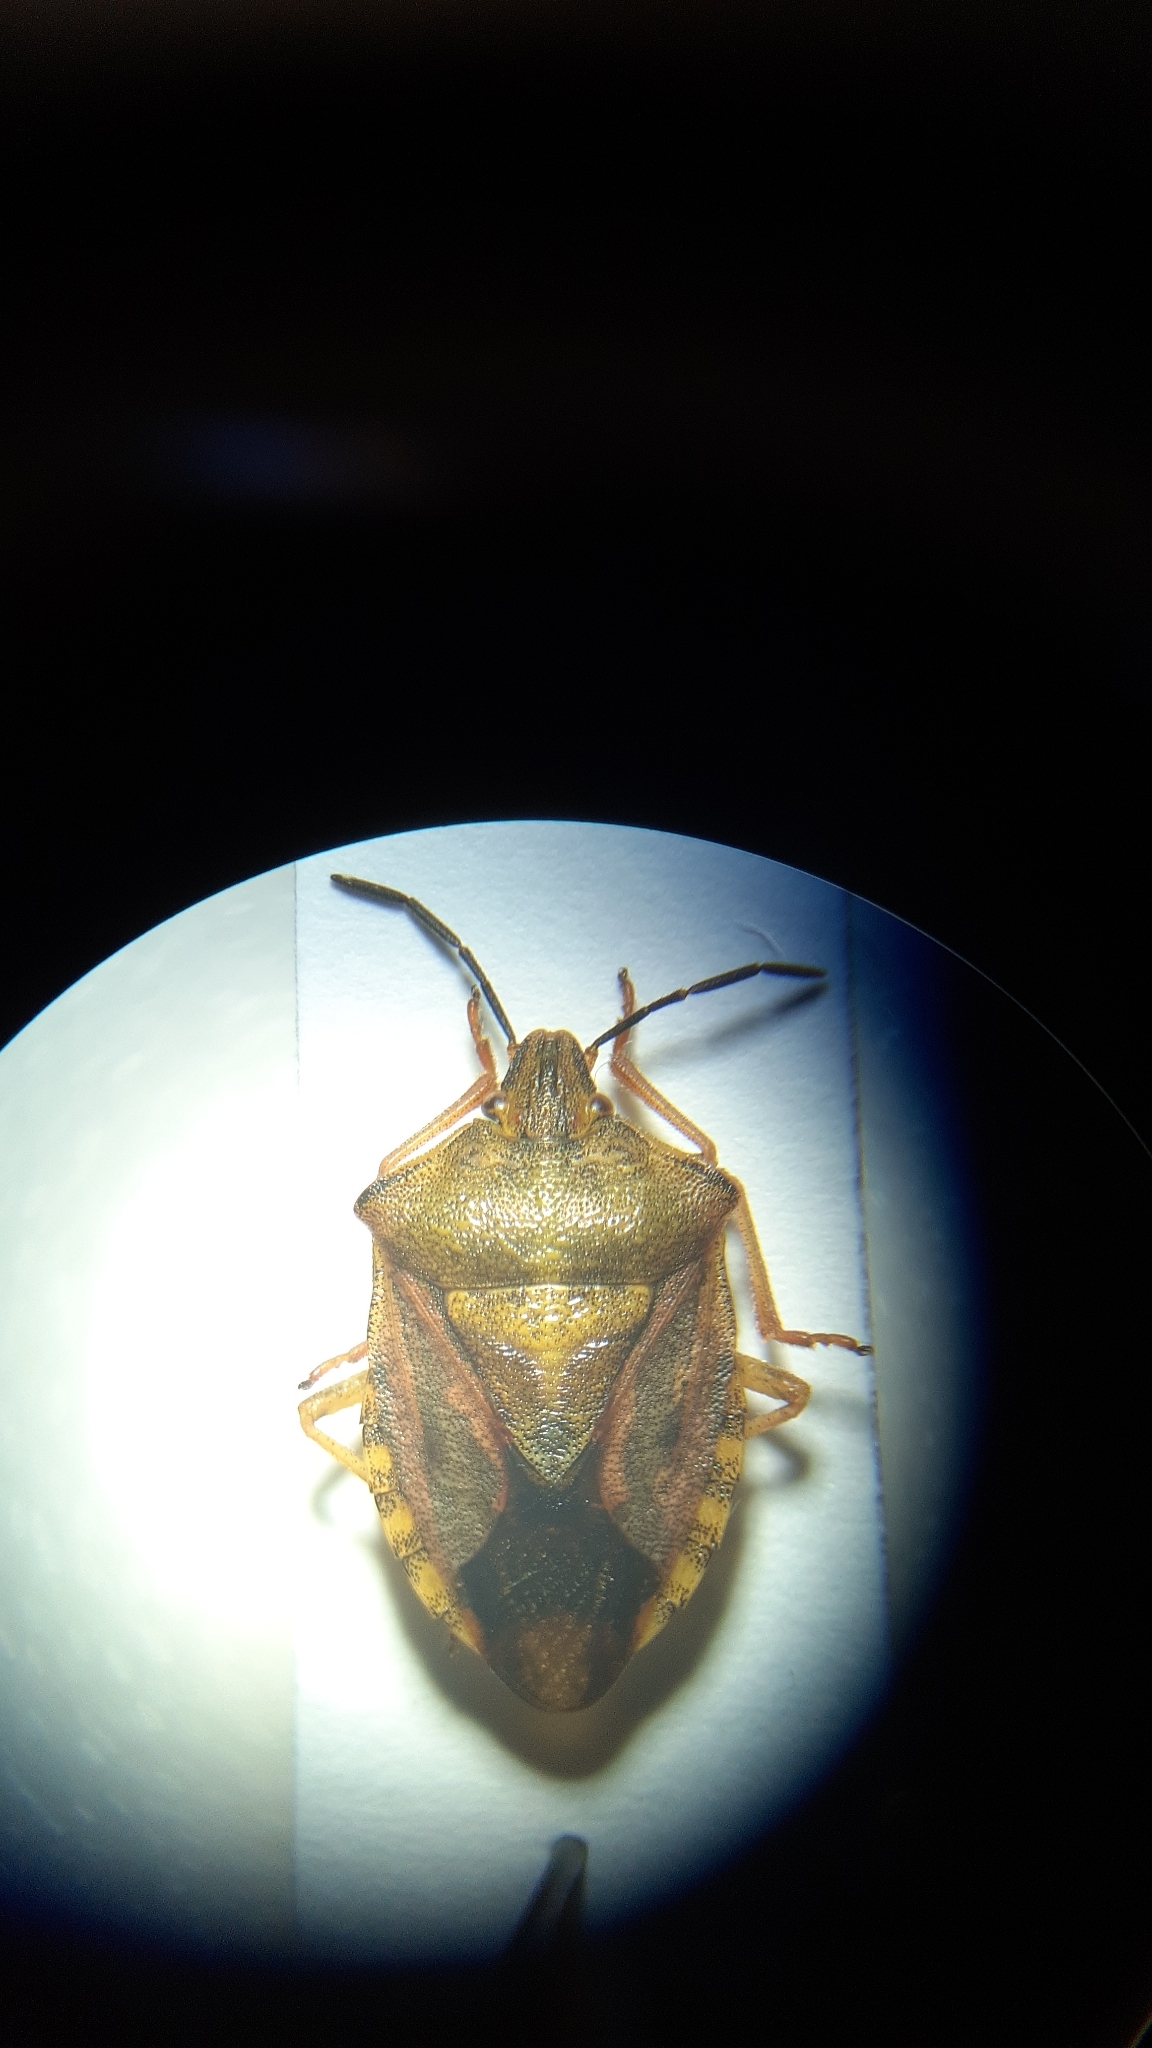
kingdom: Animalia
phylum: Arthropoda
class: Insecta
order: Hemiptera
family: Pentatomidae
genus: Carpocoris
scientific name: Carpocoris purpureipennis
